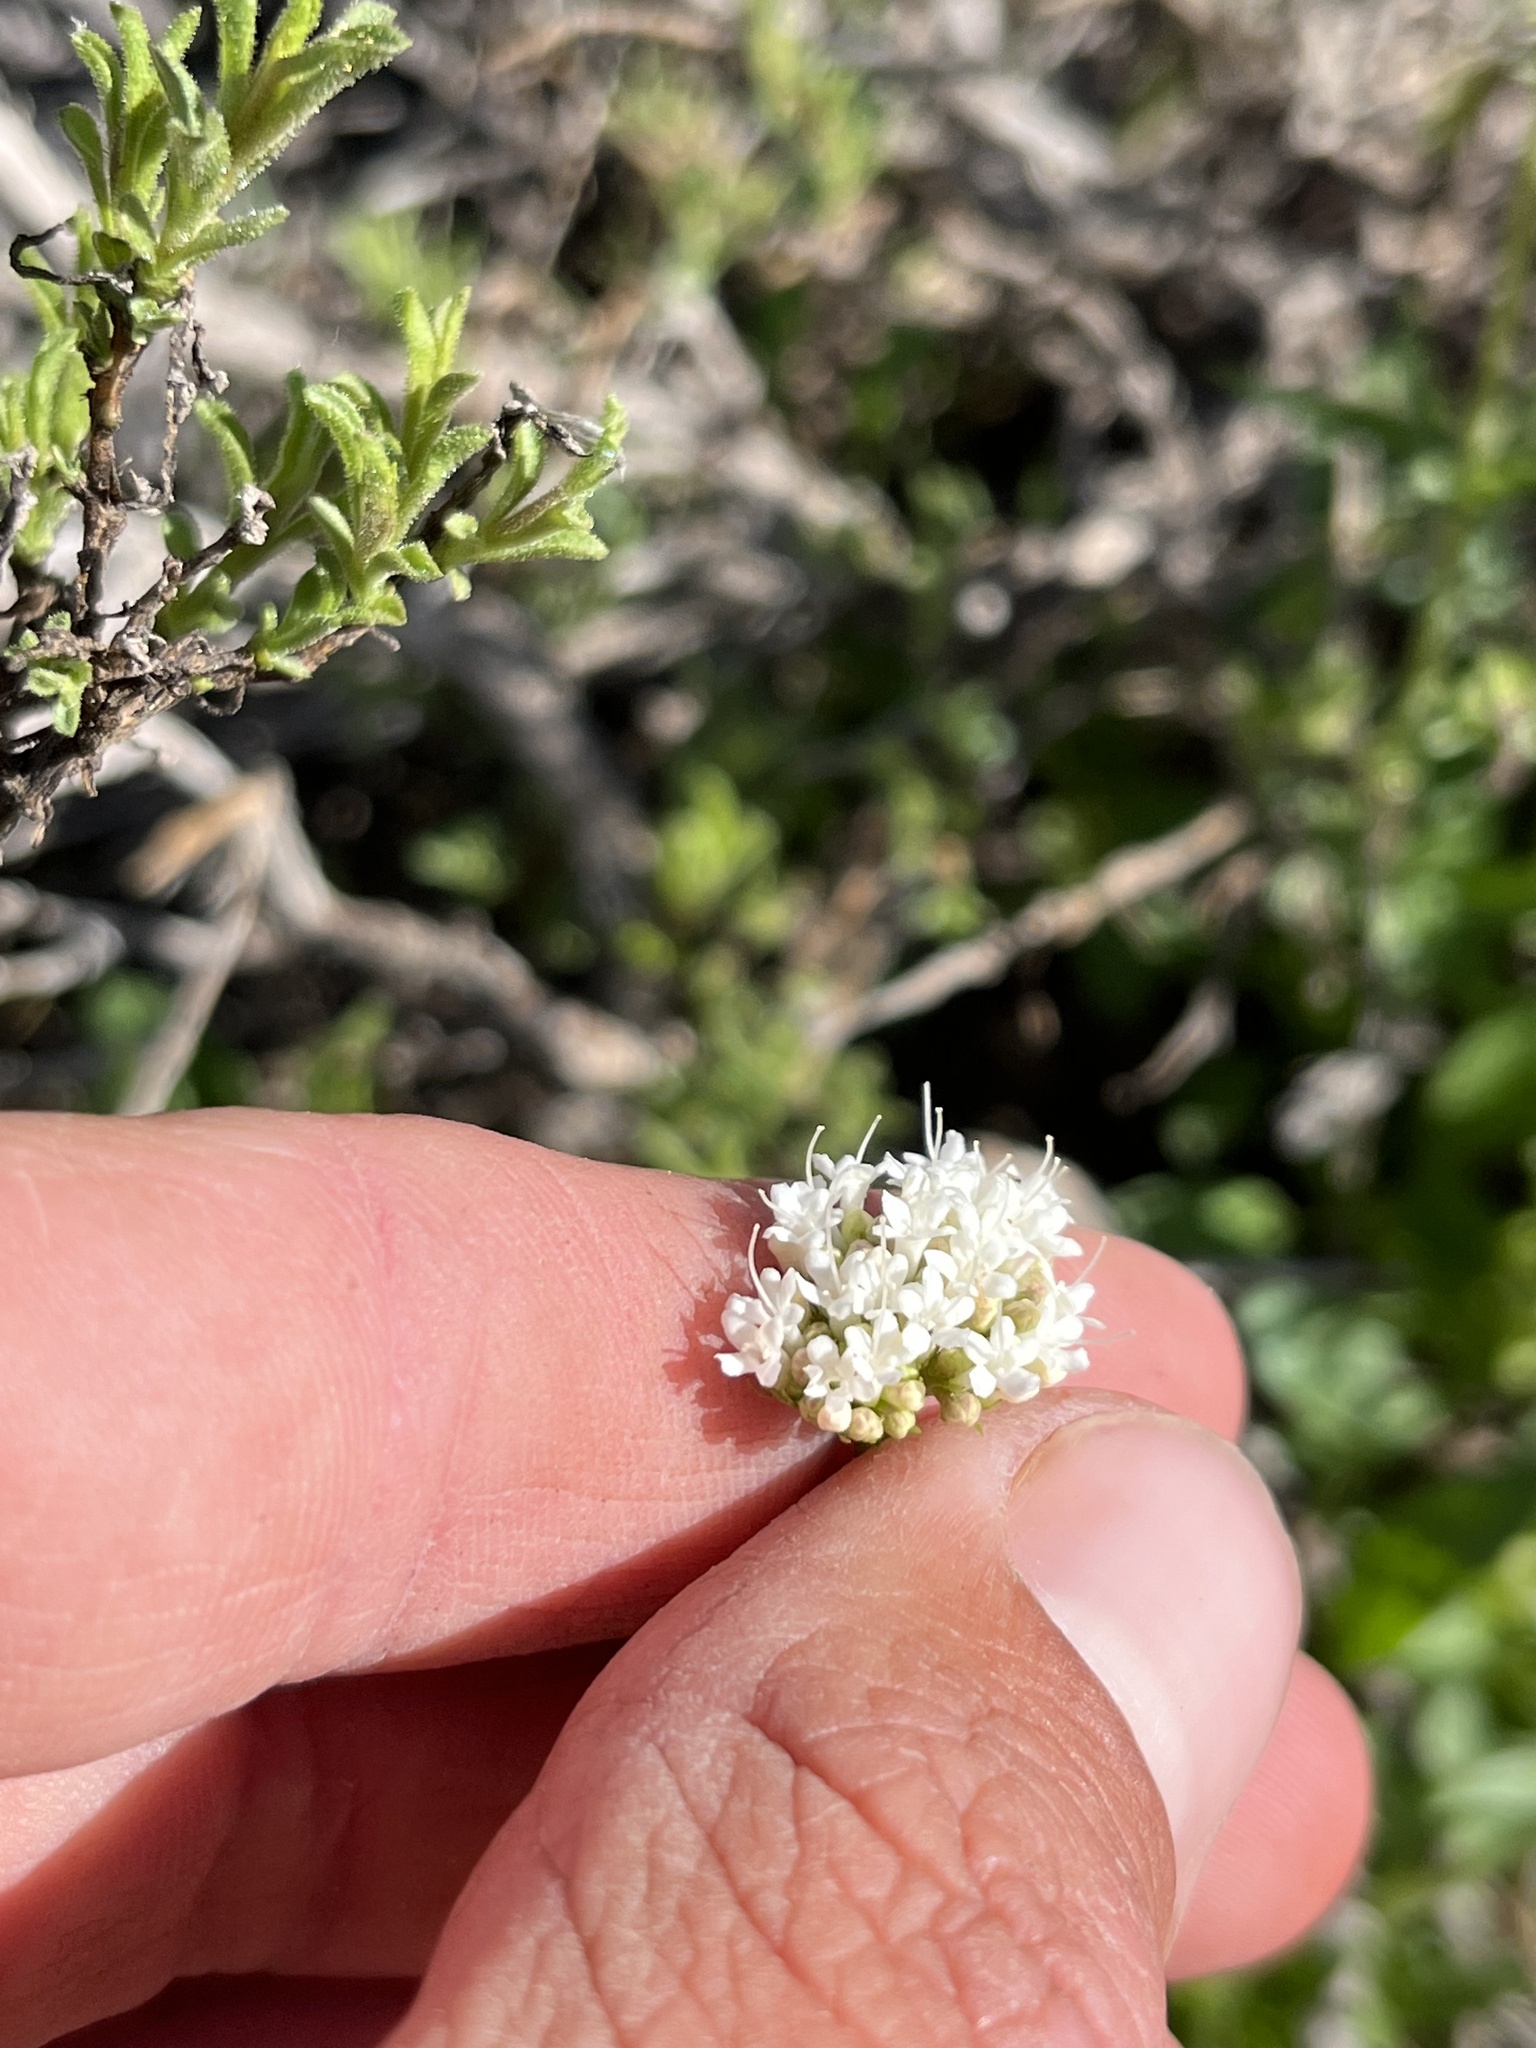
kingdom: Plantae
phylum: Tracheophyta
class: Magnoliopsida
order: Dipsacales
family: Caprifoliaceae
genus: Valeriana
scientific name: Valeriana californica
